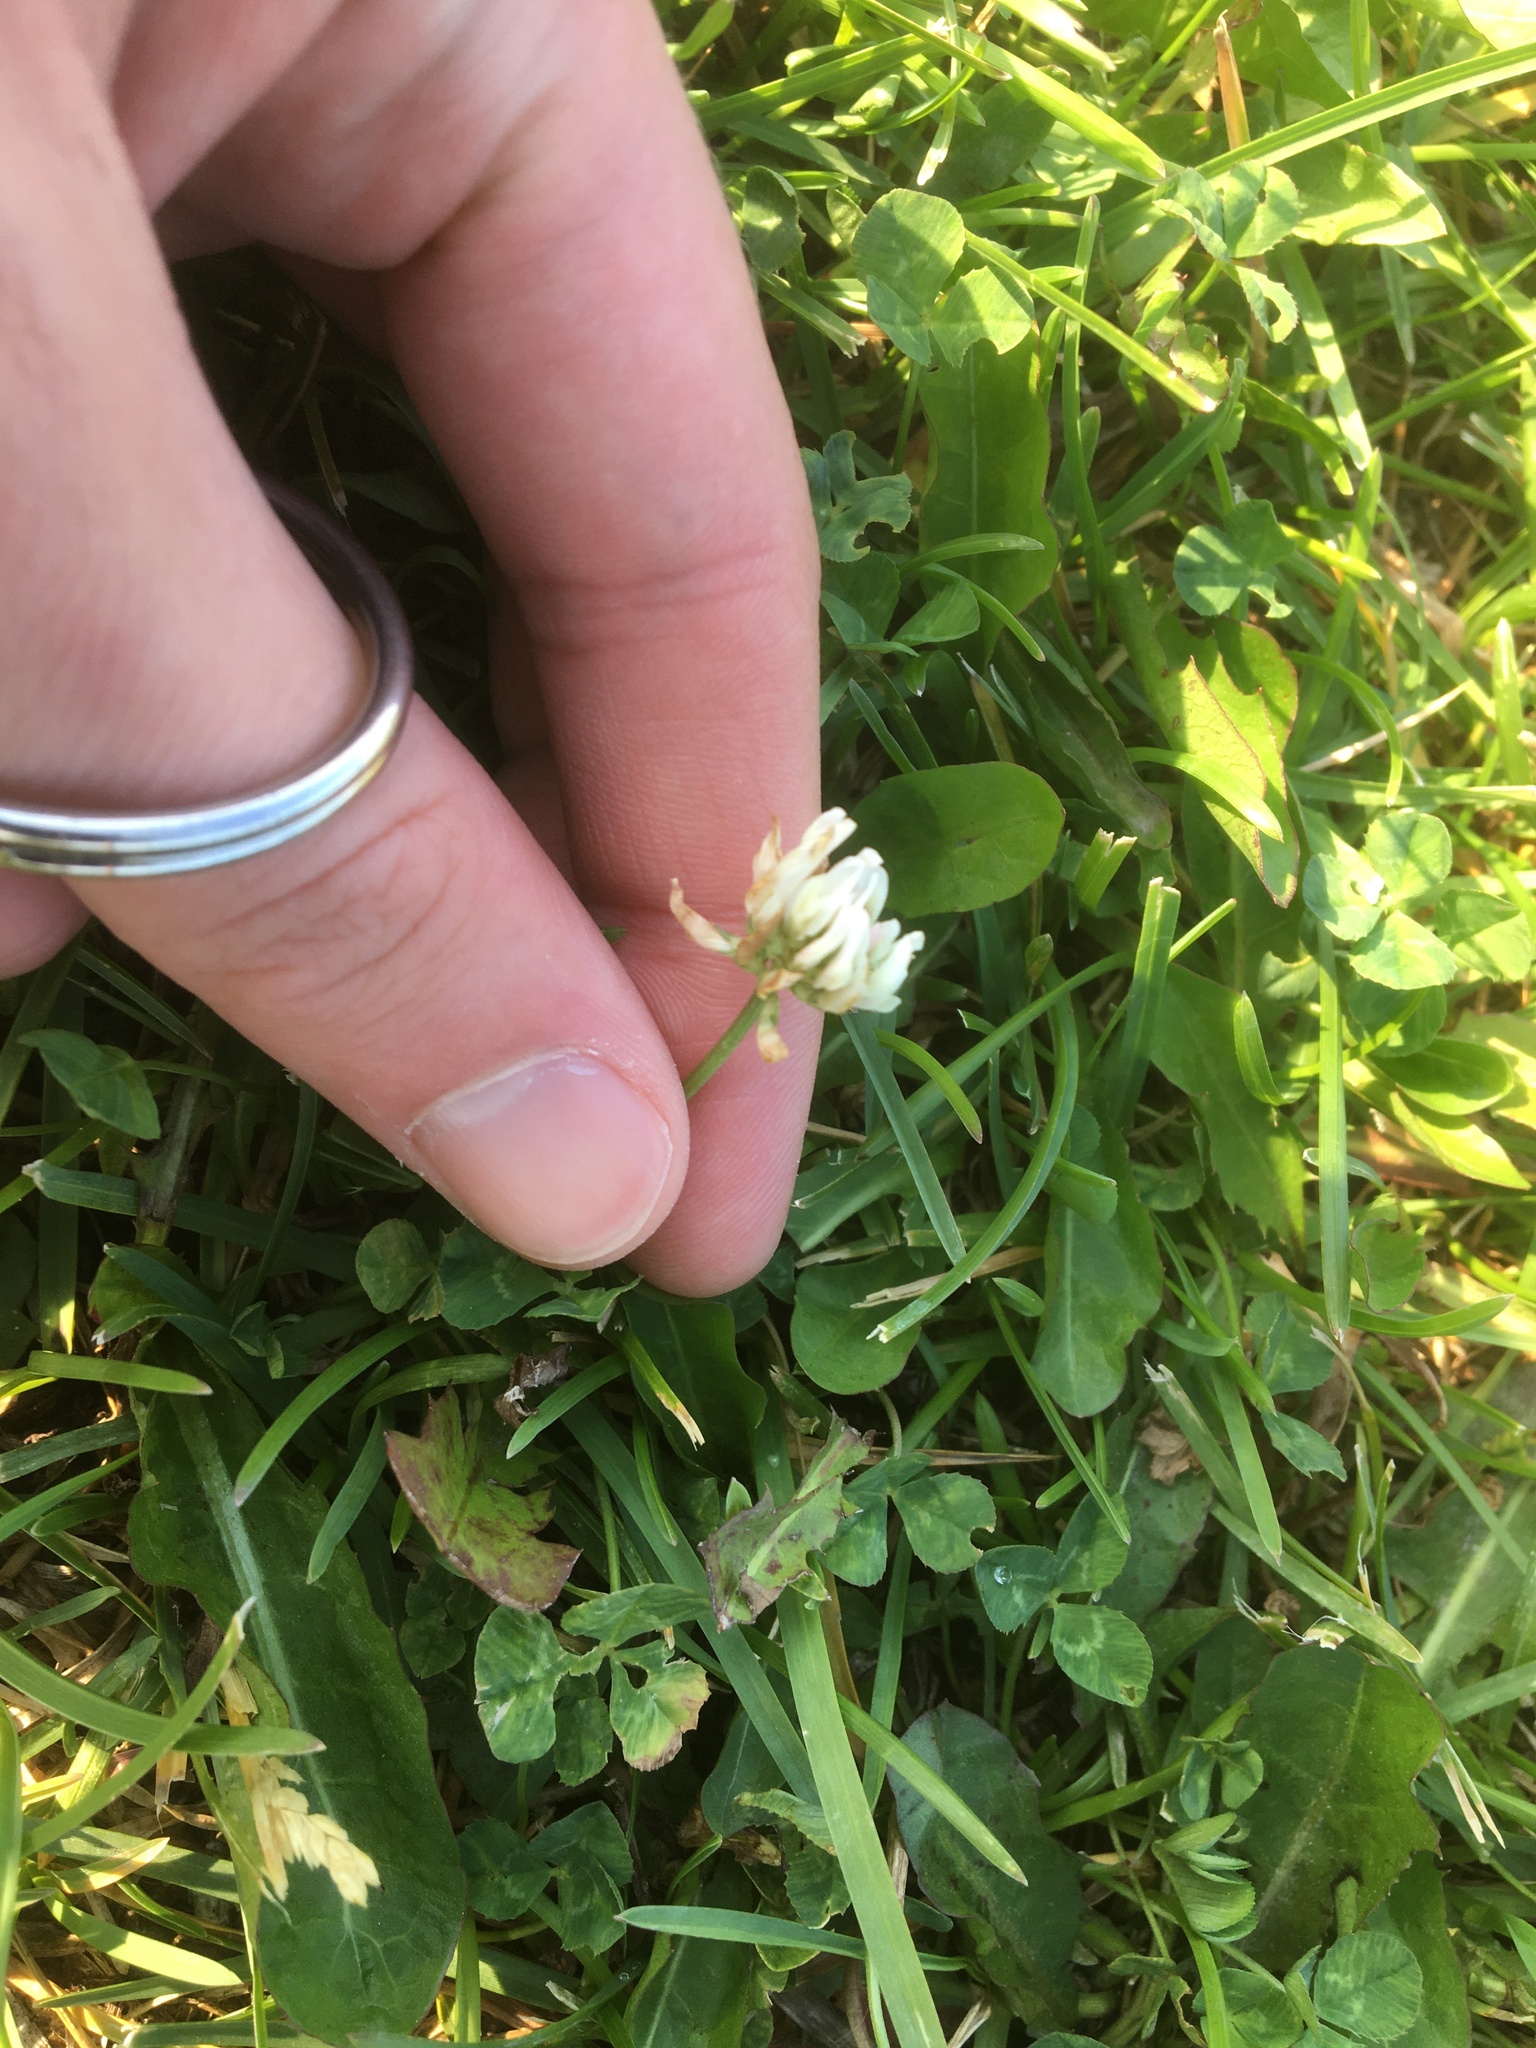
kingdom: Plantae
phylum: Tracheophyta
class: Magnoliopsida
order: Fabales
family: Fabaceae
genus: Trifolium
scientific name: Trifolium repens
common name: White clover
